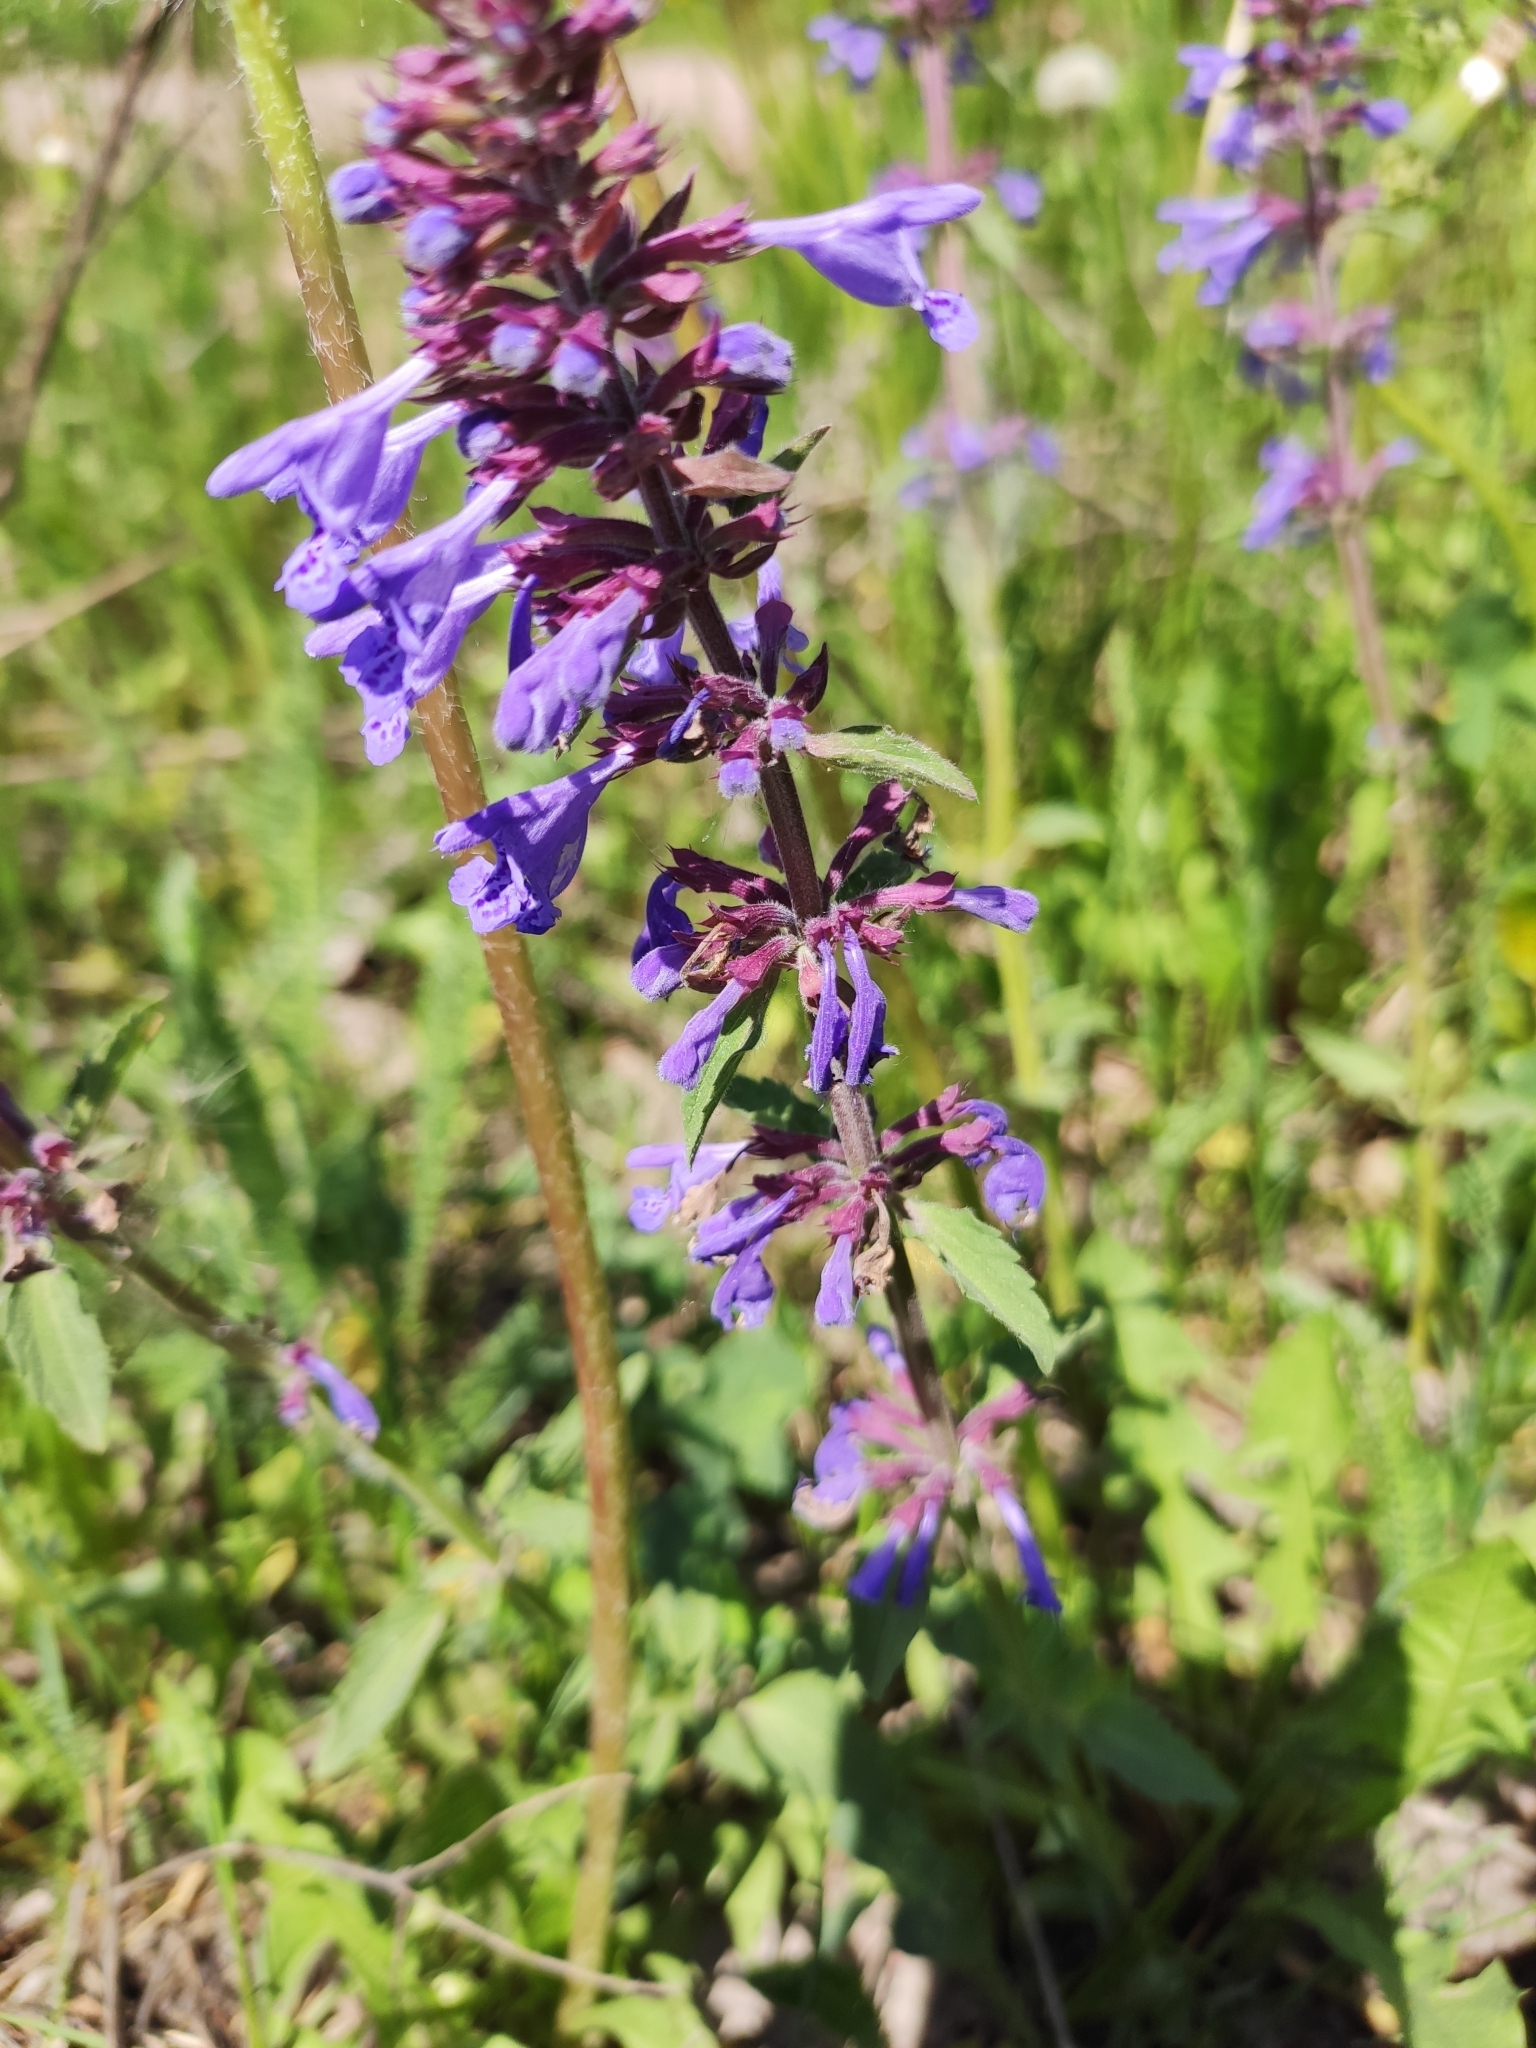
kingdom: Plantae
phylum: Tracheophyta
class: Magnoliopsida
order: Lamiales
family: Lamiaceae
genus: Dracocephalum
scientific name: Dracocephalum nutans
